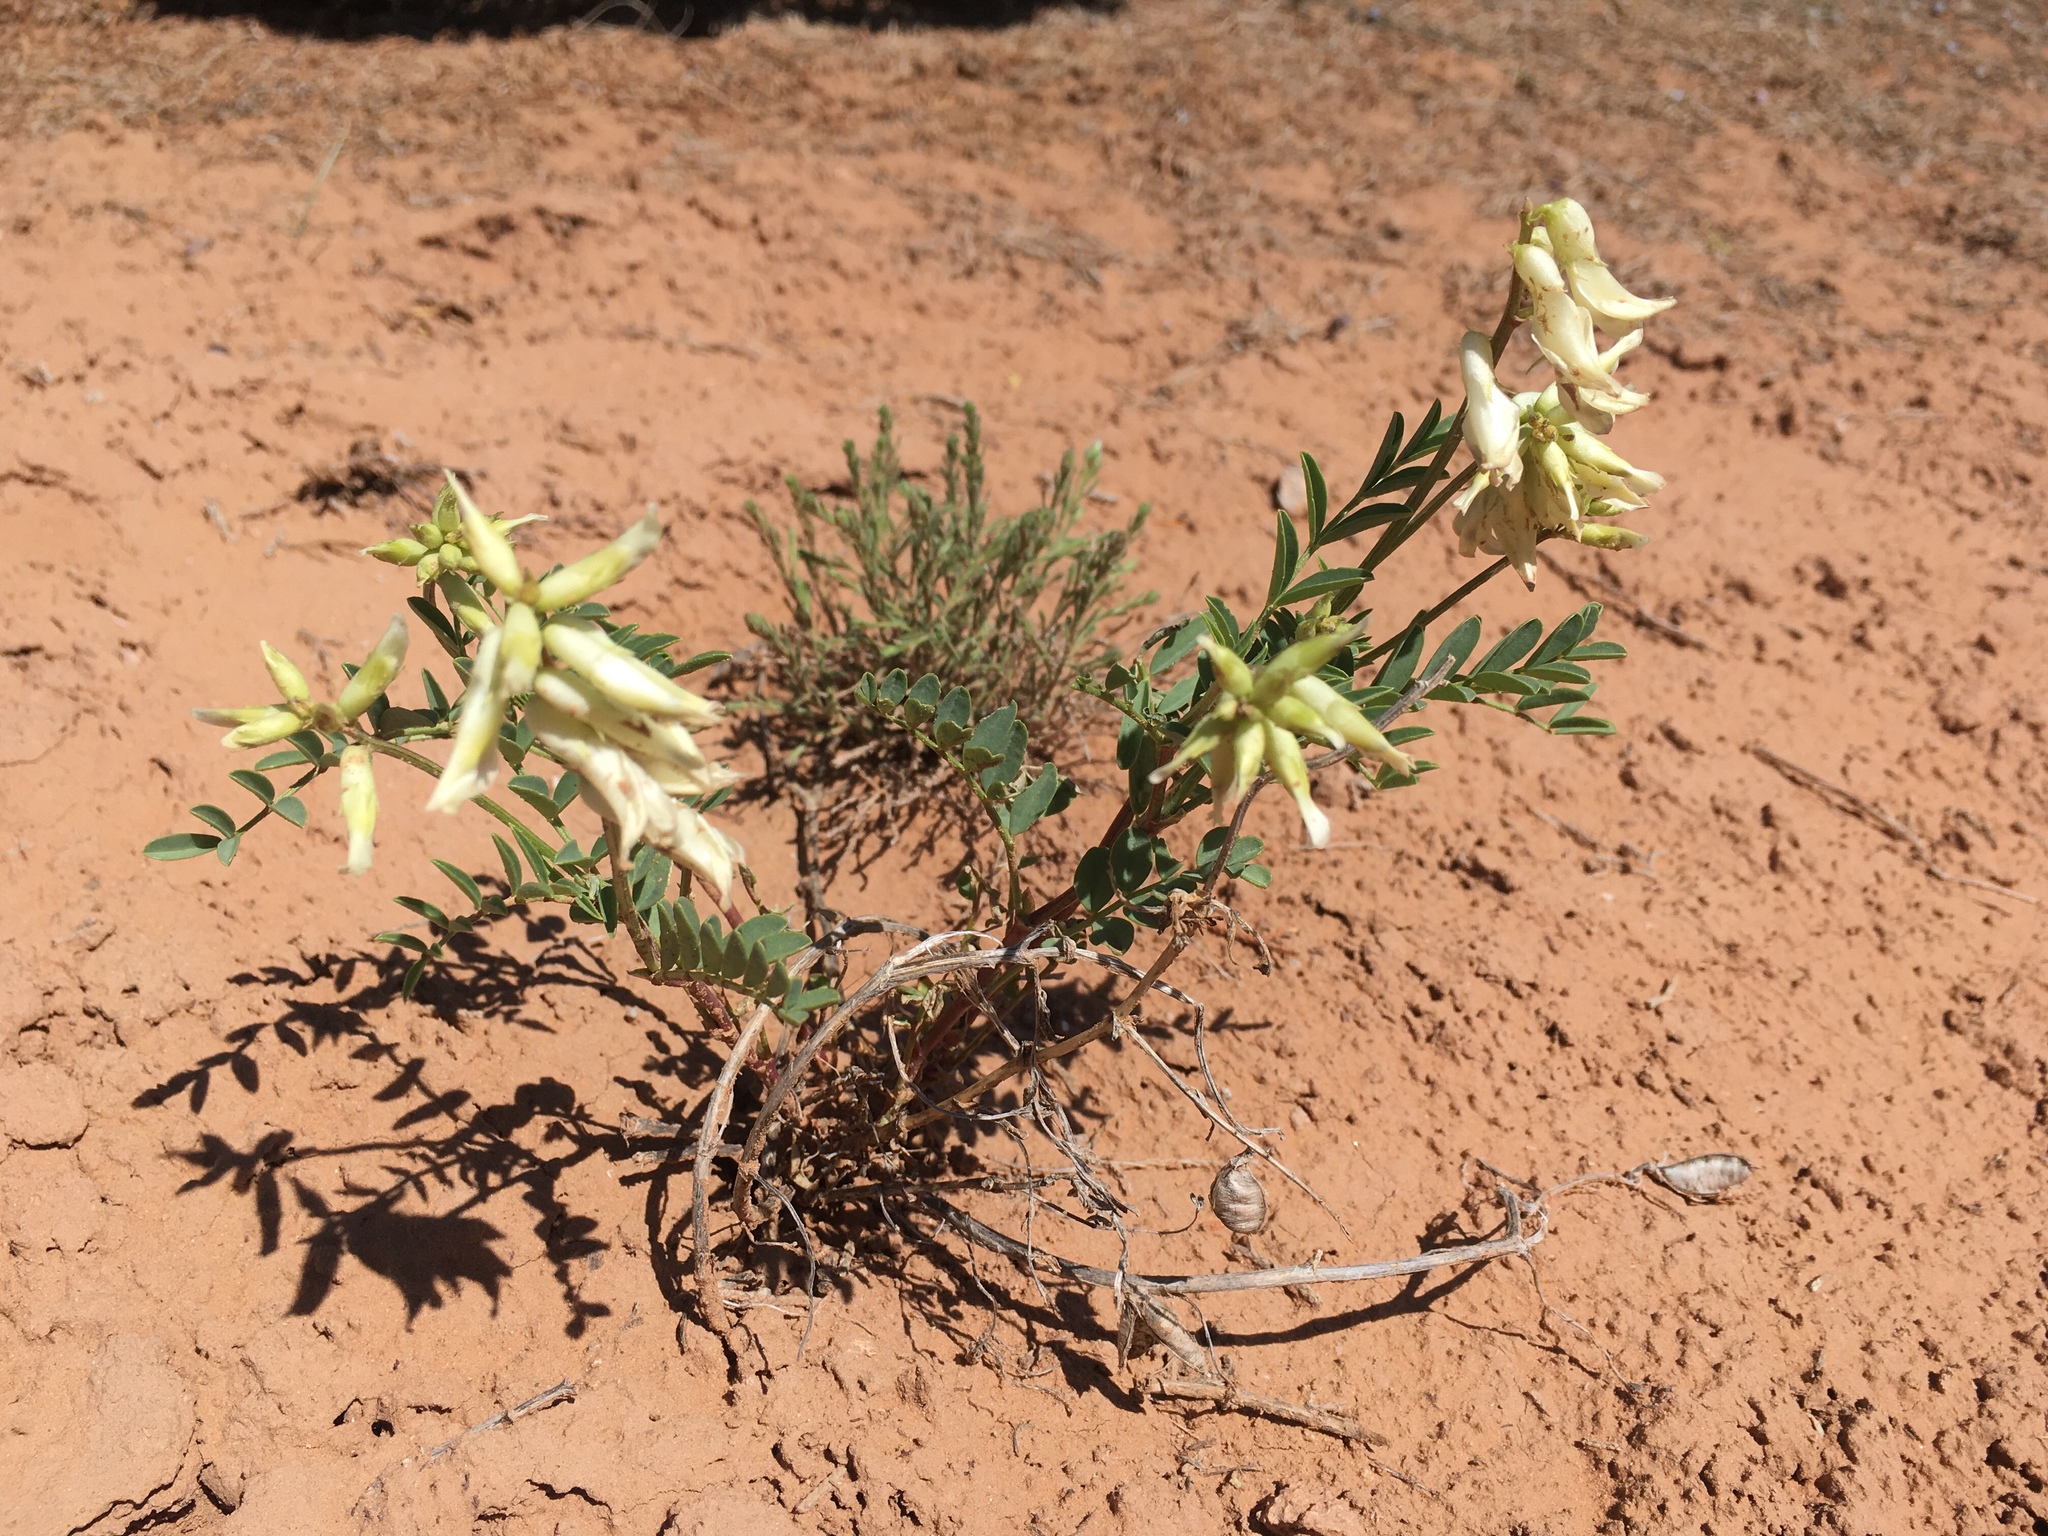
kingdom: Plantae
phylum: Tracheophyta
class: Magnoliopsida
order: Fabales
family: Fabaceae
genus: Astragalus
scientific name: Astragalus praelongus
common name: Stinking milk-vetch
